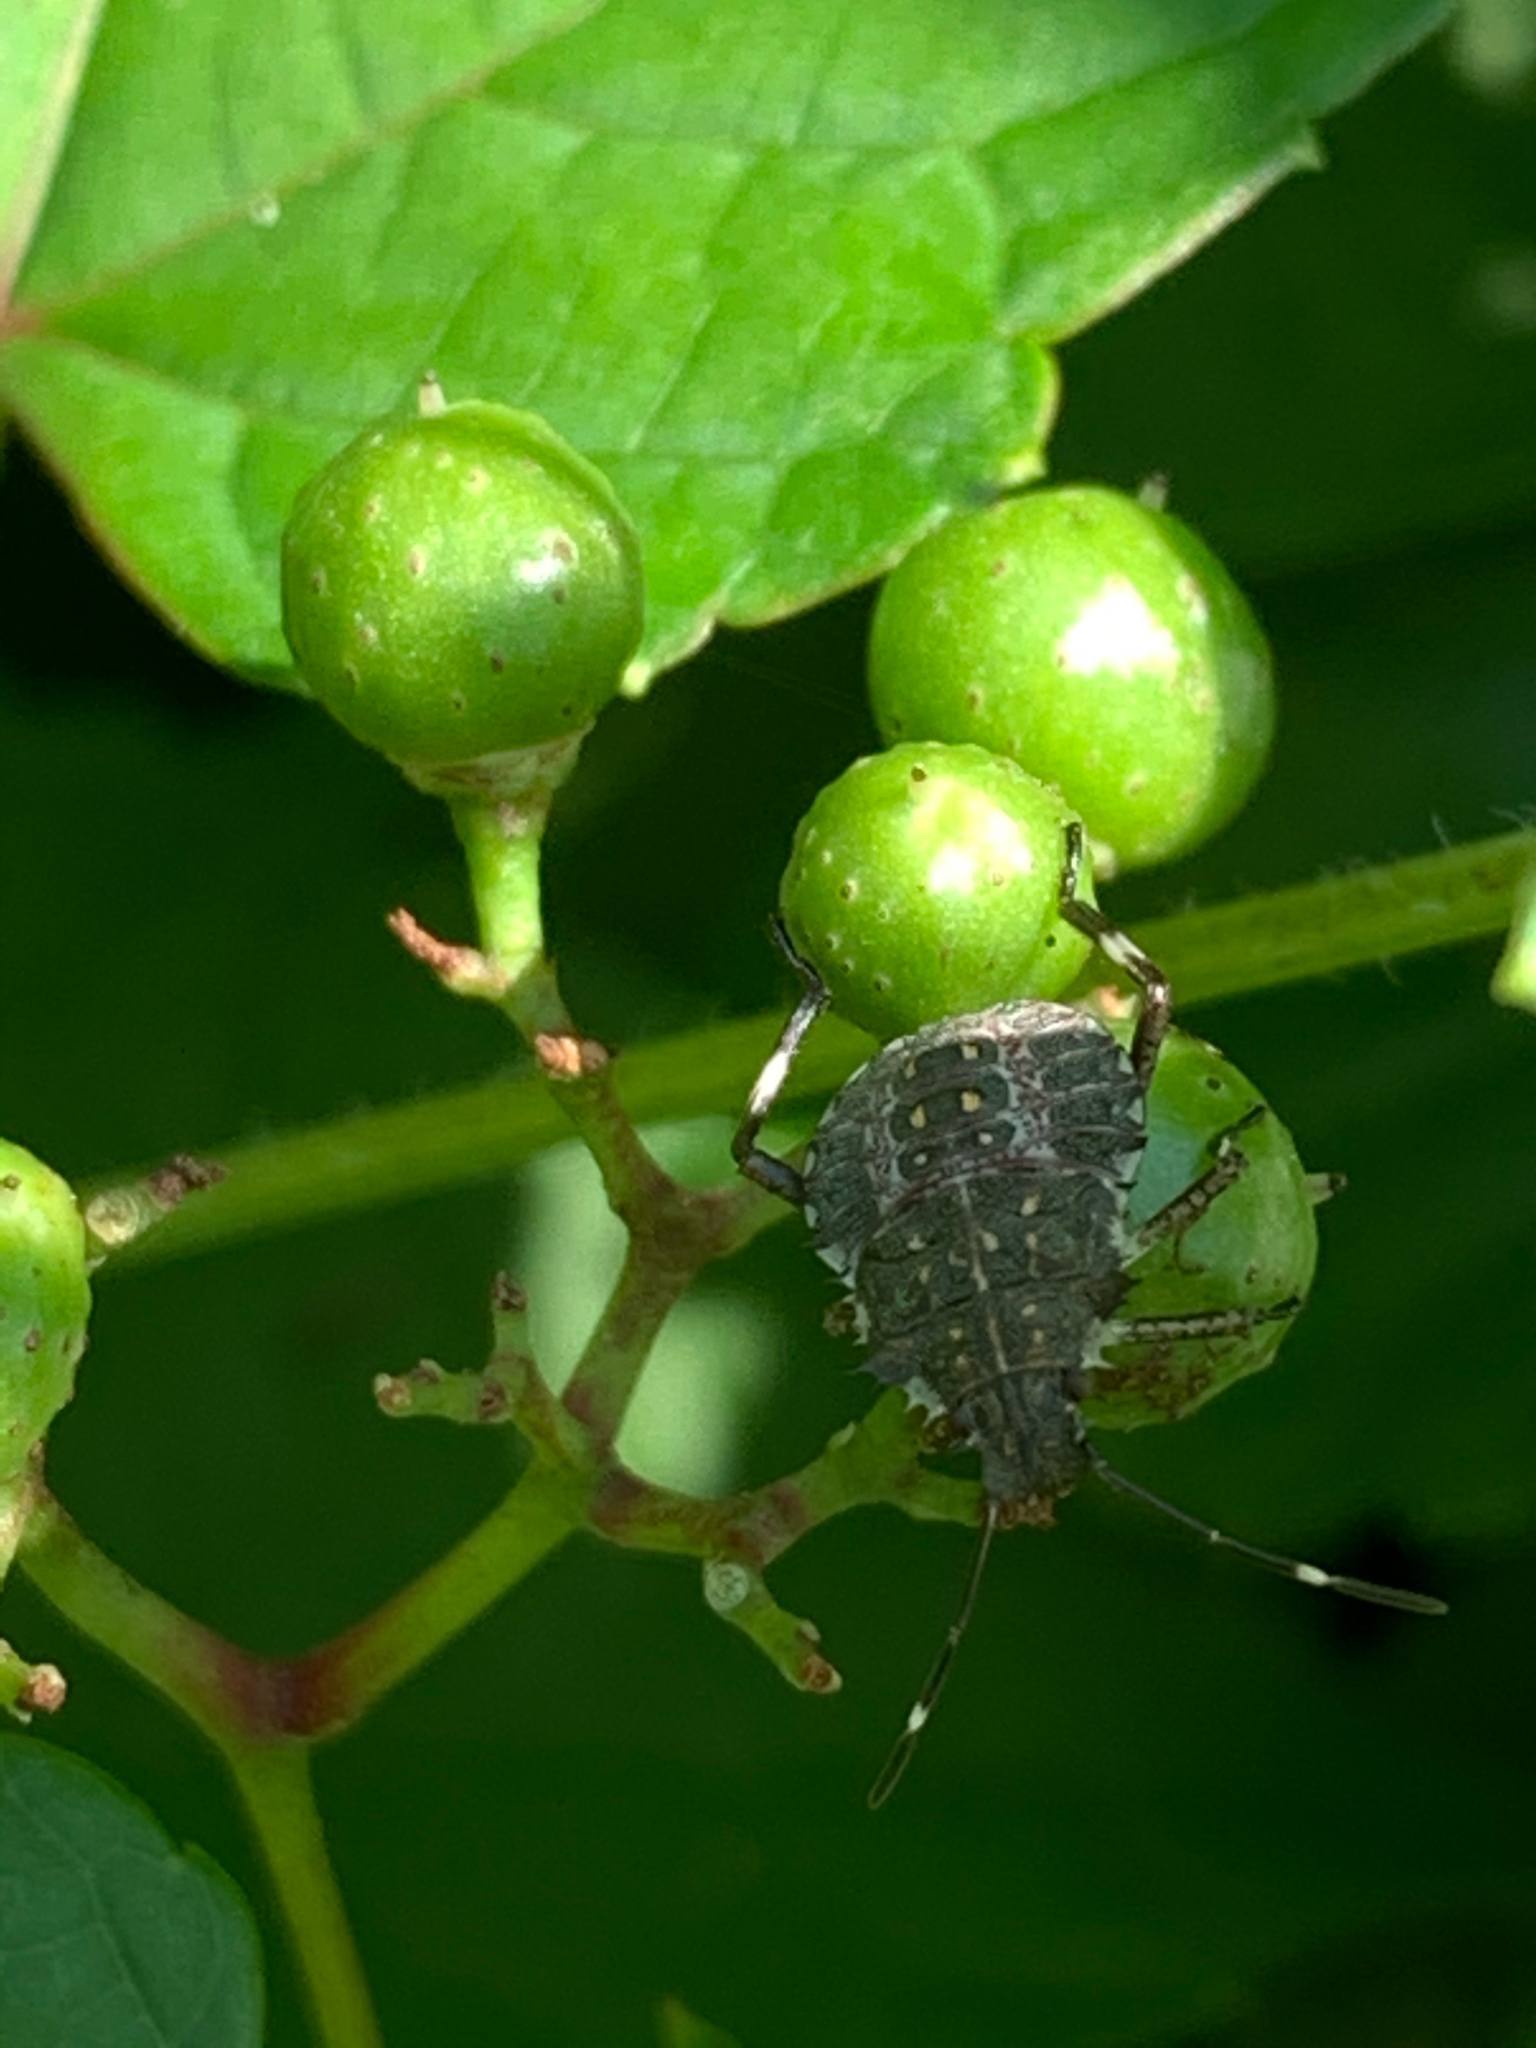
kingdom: Animalia
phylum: Arthropoda
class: Insecta
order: Hemiptera
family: Pentatomidae
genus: Halyomorpha
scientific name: Halyomorpha halys
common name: Brown marmorated stink bug
